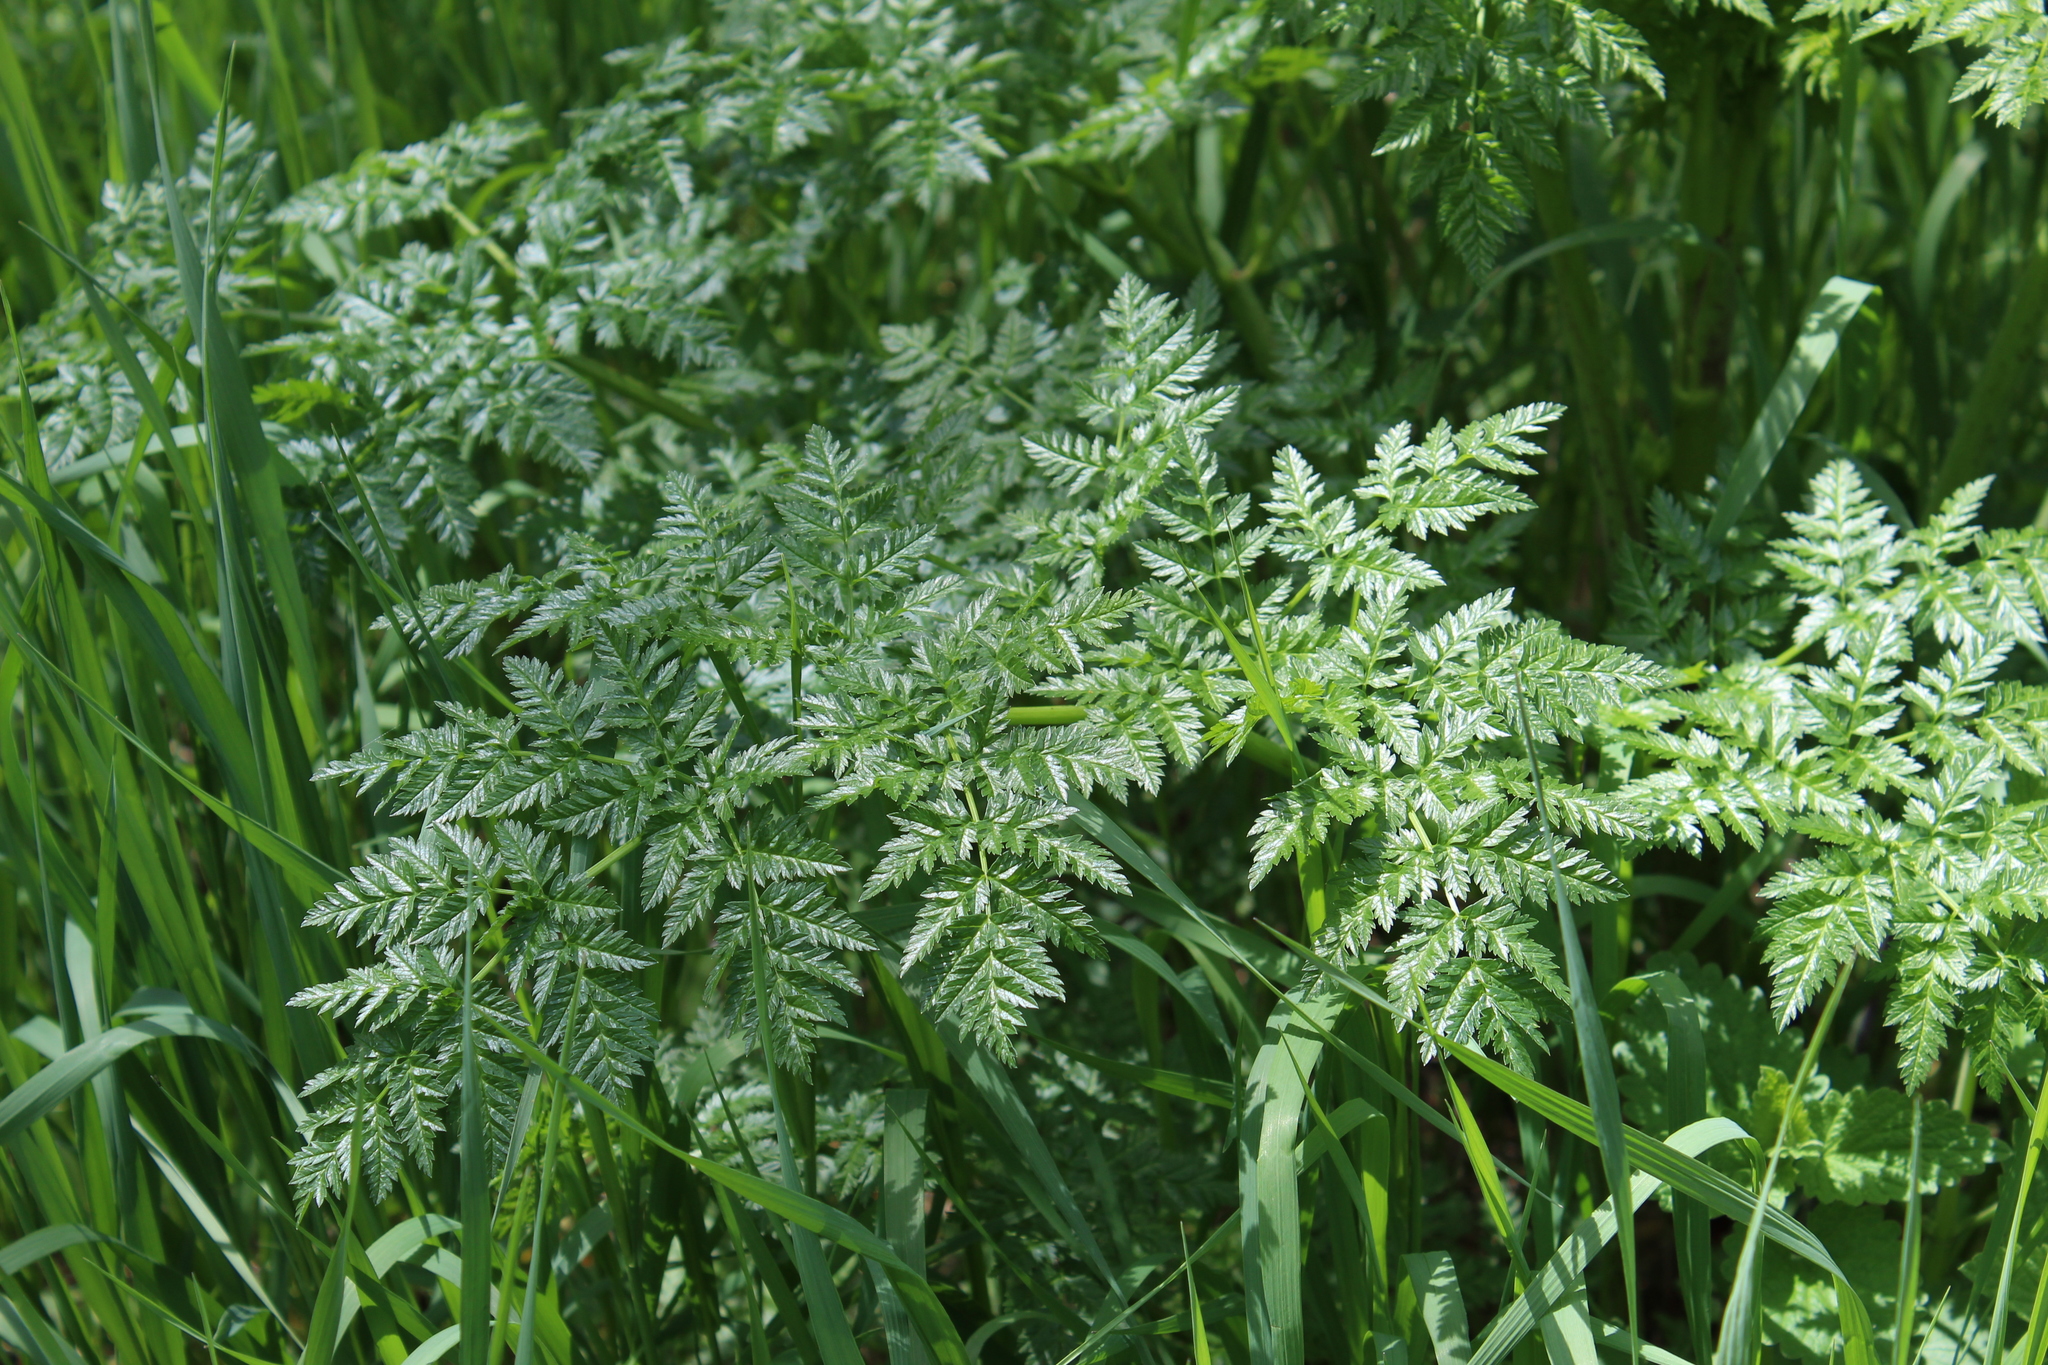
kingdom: Plantae
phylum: Tracheophyta
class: Magnoliopsida
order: Apiales
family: Apiaceae
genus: Conium
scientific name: Conium maculatum
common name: Hemlock
